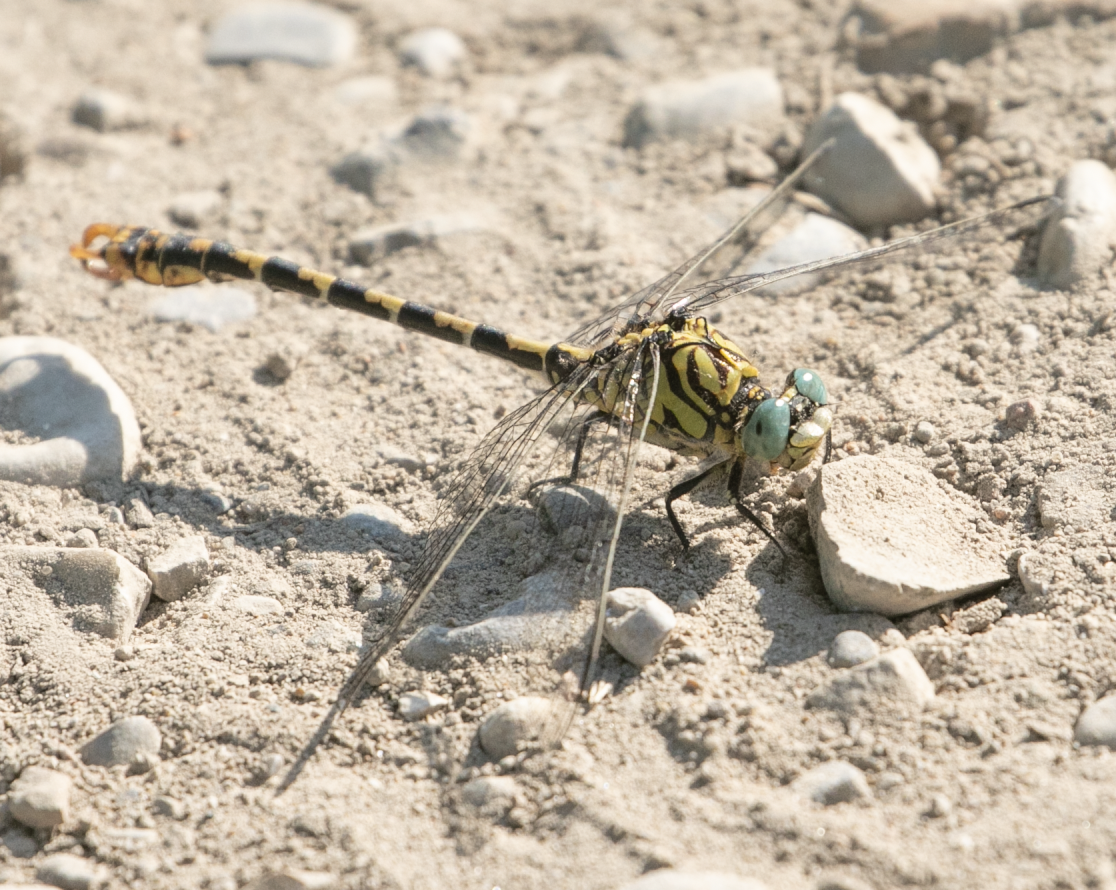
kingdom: Animalia
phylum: Arthropoda
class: Insecta
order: Odonata
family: Gomphidae
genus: Onychogomphus
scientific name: Onychogomphus forcipatus
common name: Small pincertail
